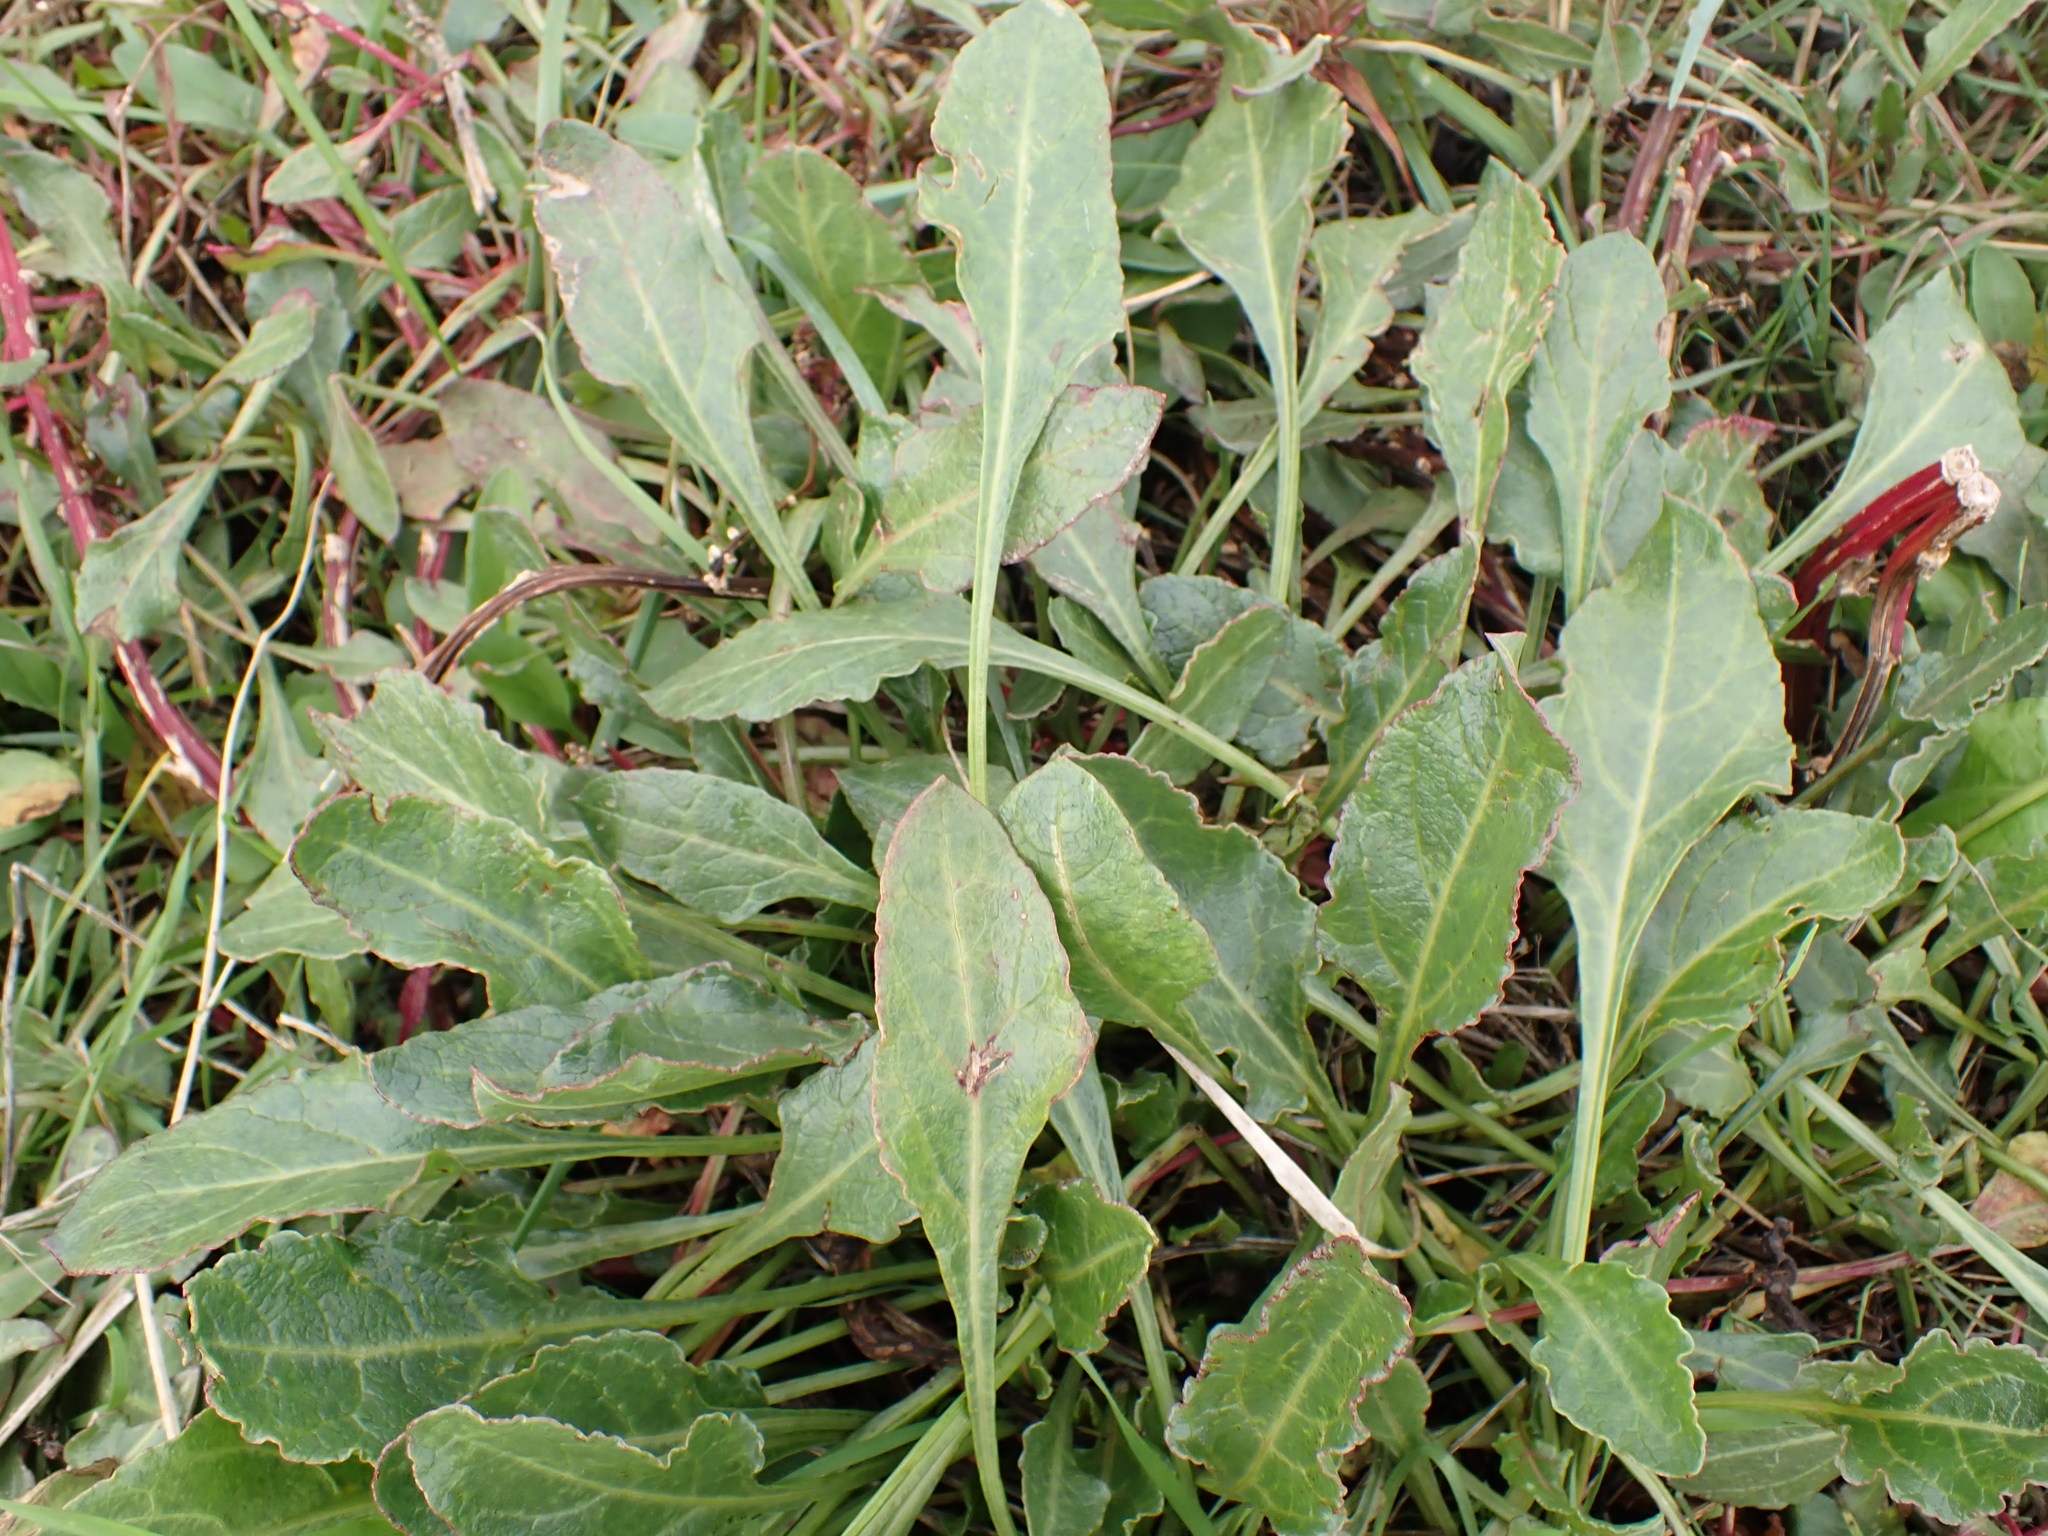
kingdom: Plantae
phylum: Tracheophyta
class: Magnoliopsida
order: Caryophyllales
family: Amaranthaceae
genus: Beta
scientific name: Beta vulgaris
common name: Beet
